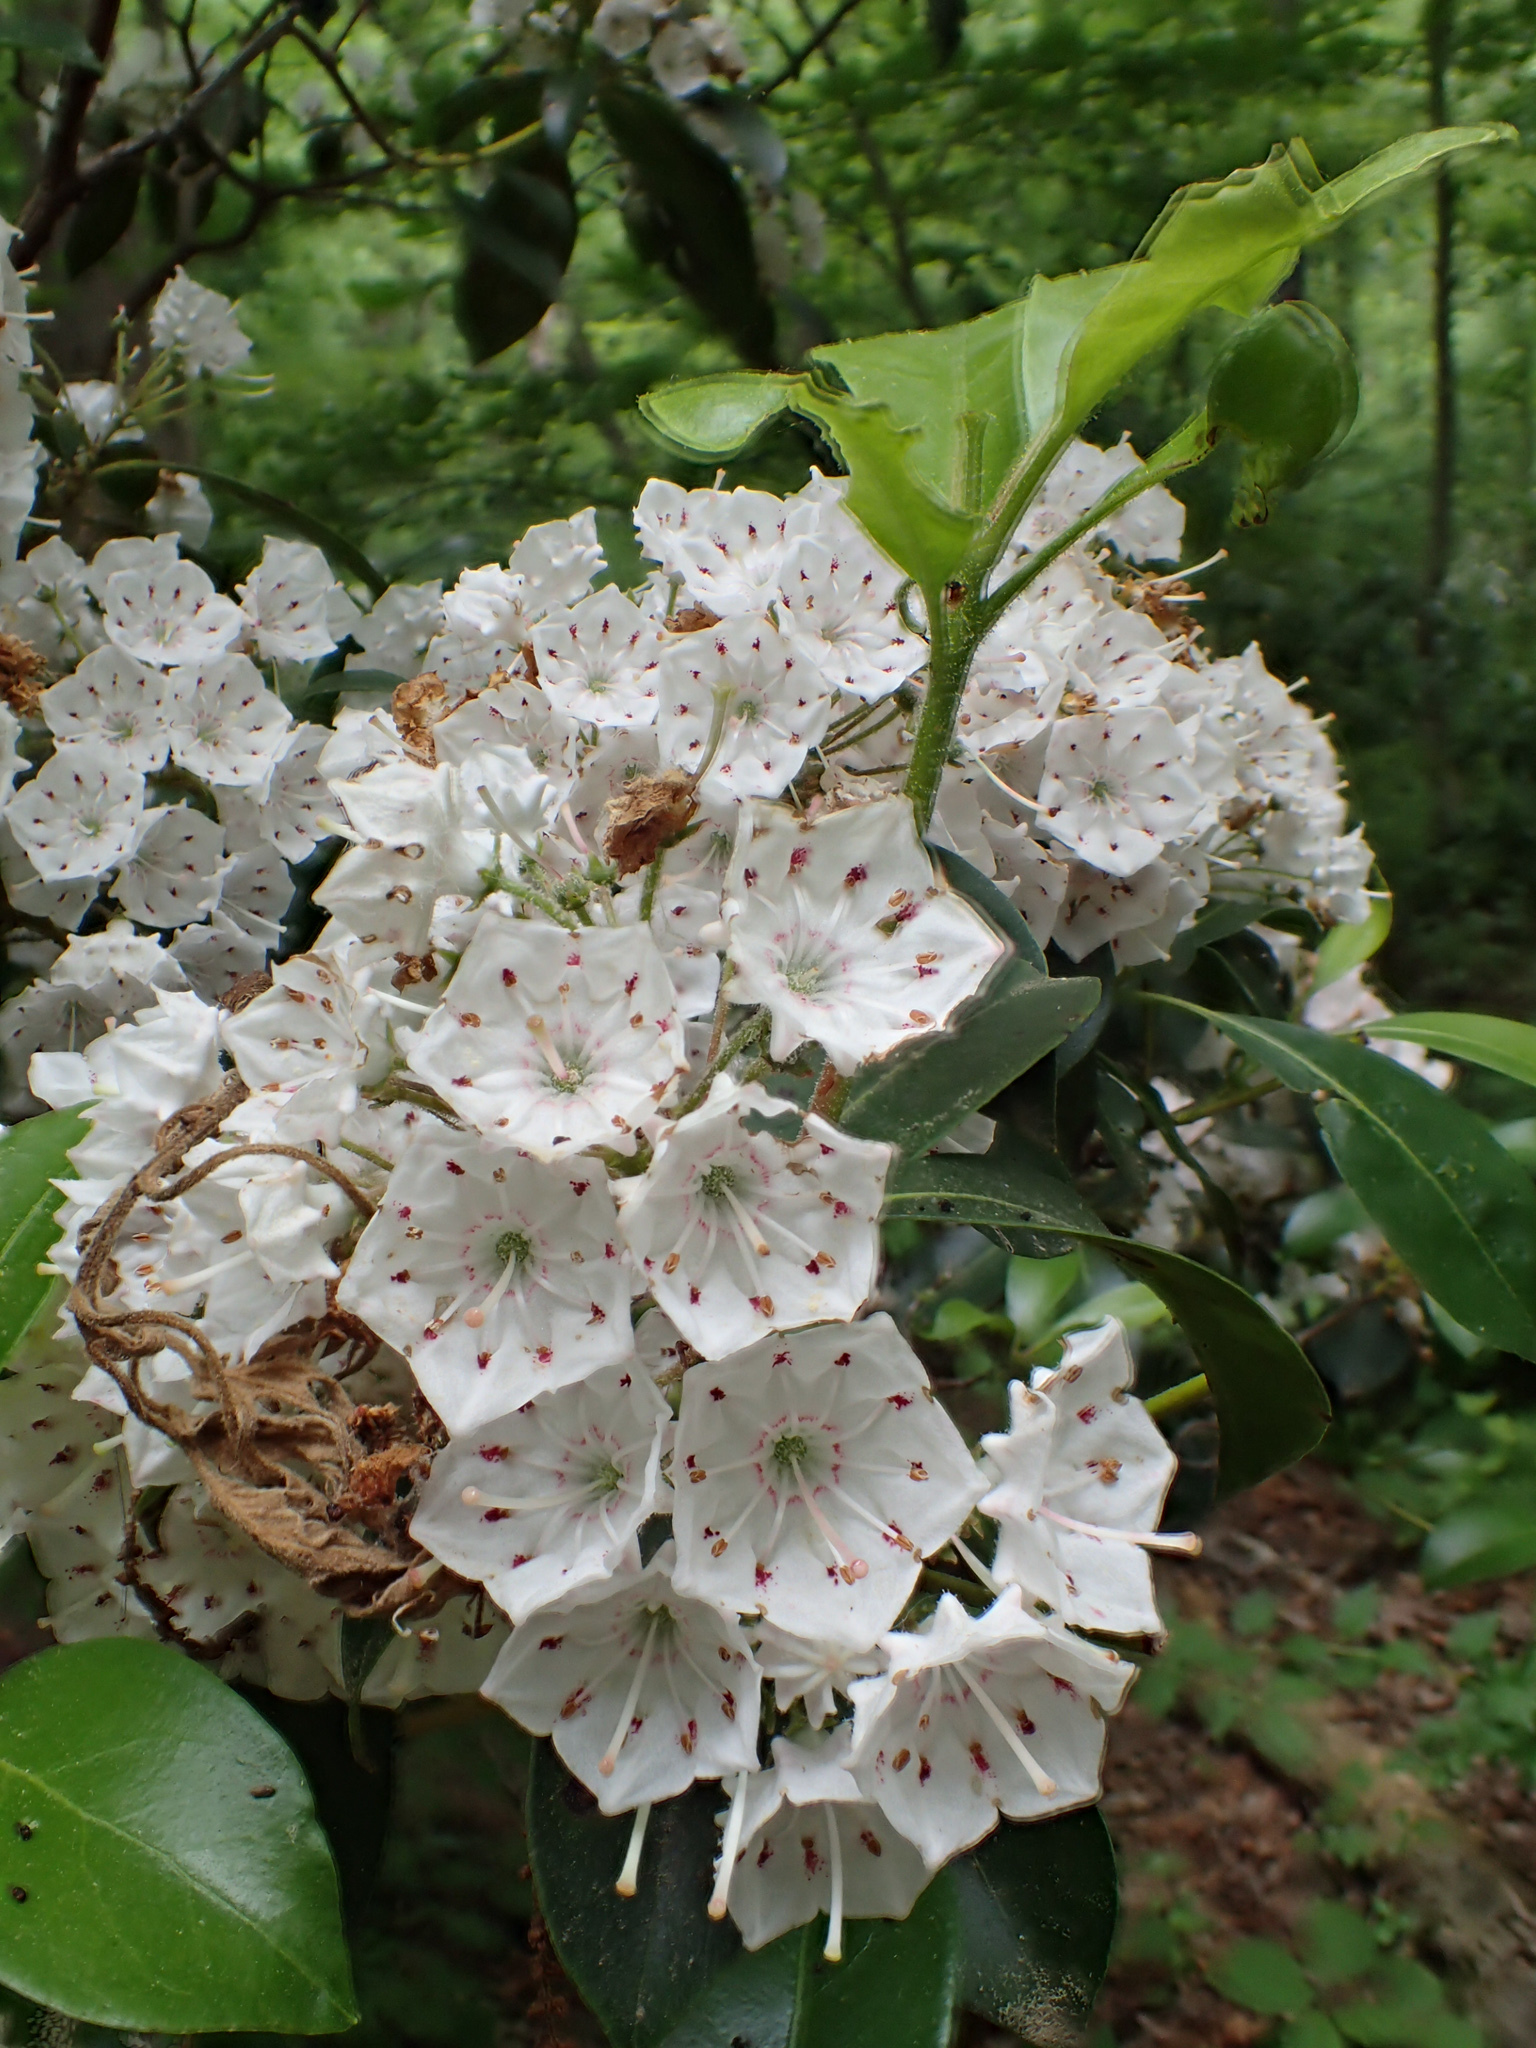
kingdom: Plantae
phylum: Tracheophyta
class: Magnoliopsida
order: Ericales
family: Ericaceae
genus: Kalmia
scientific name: Kalmia latifolia
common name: Mountain-laurel
